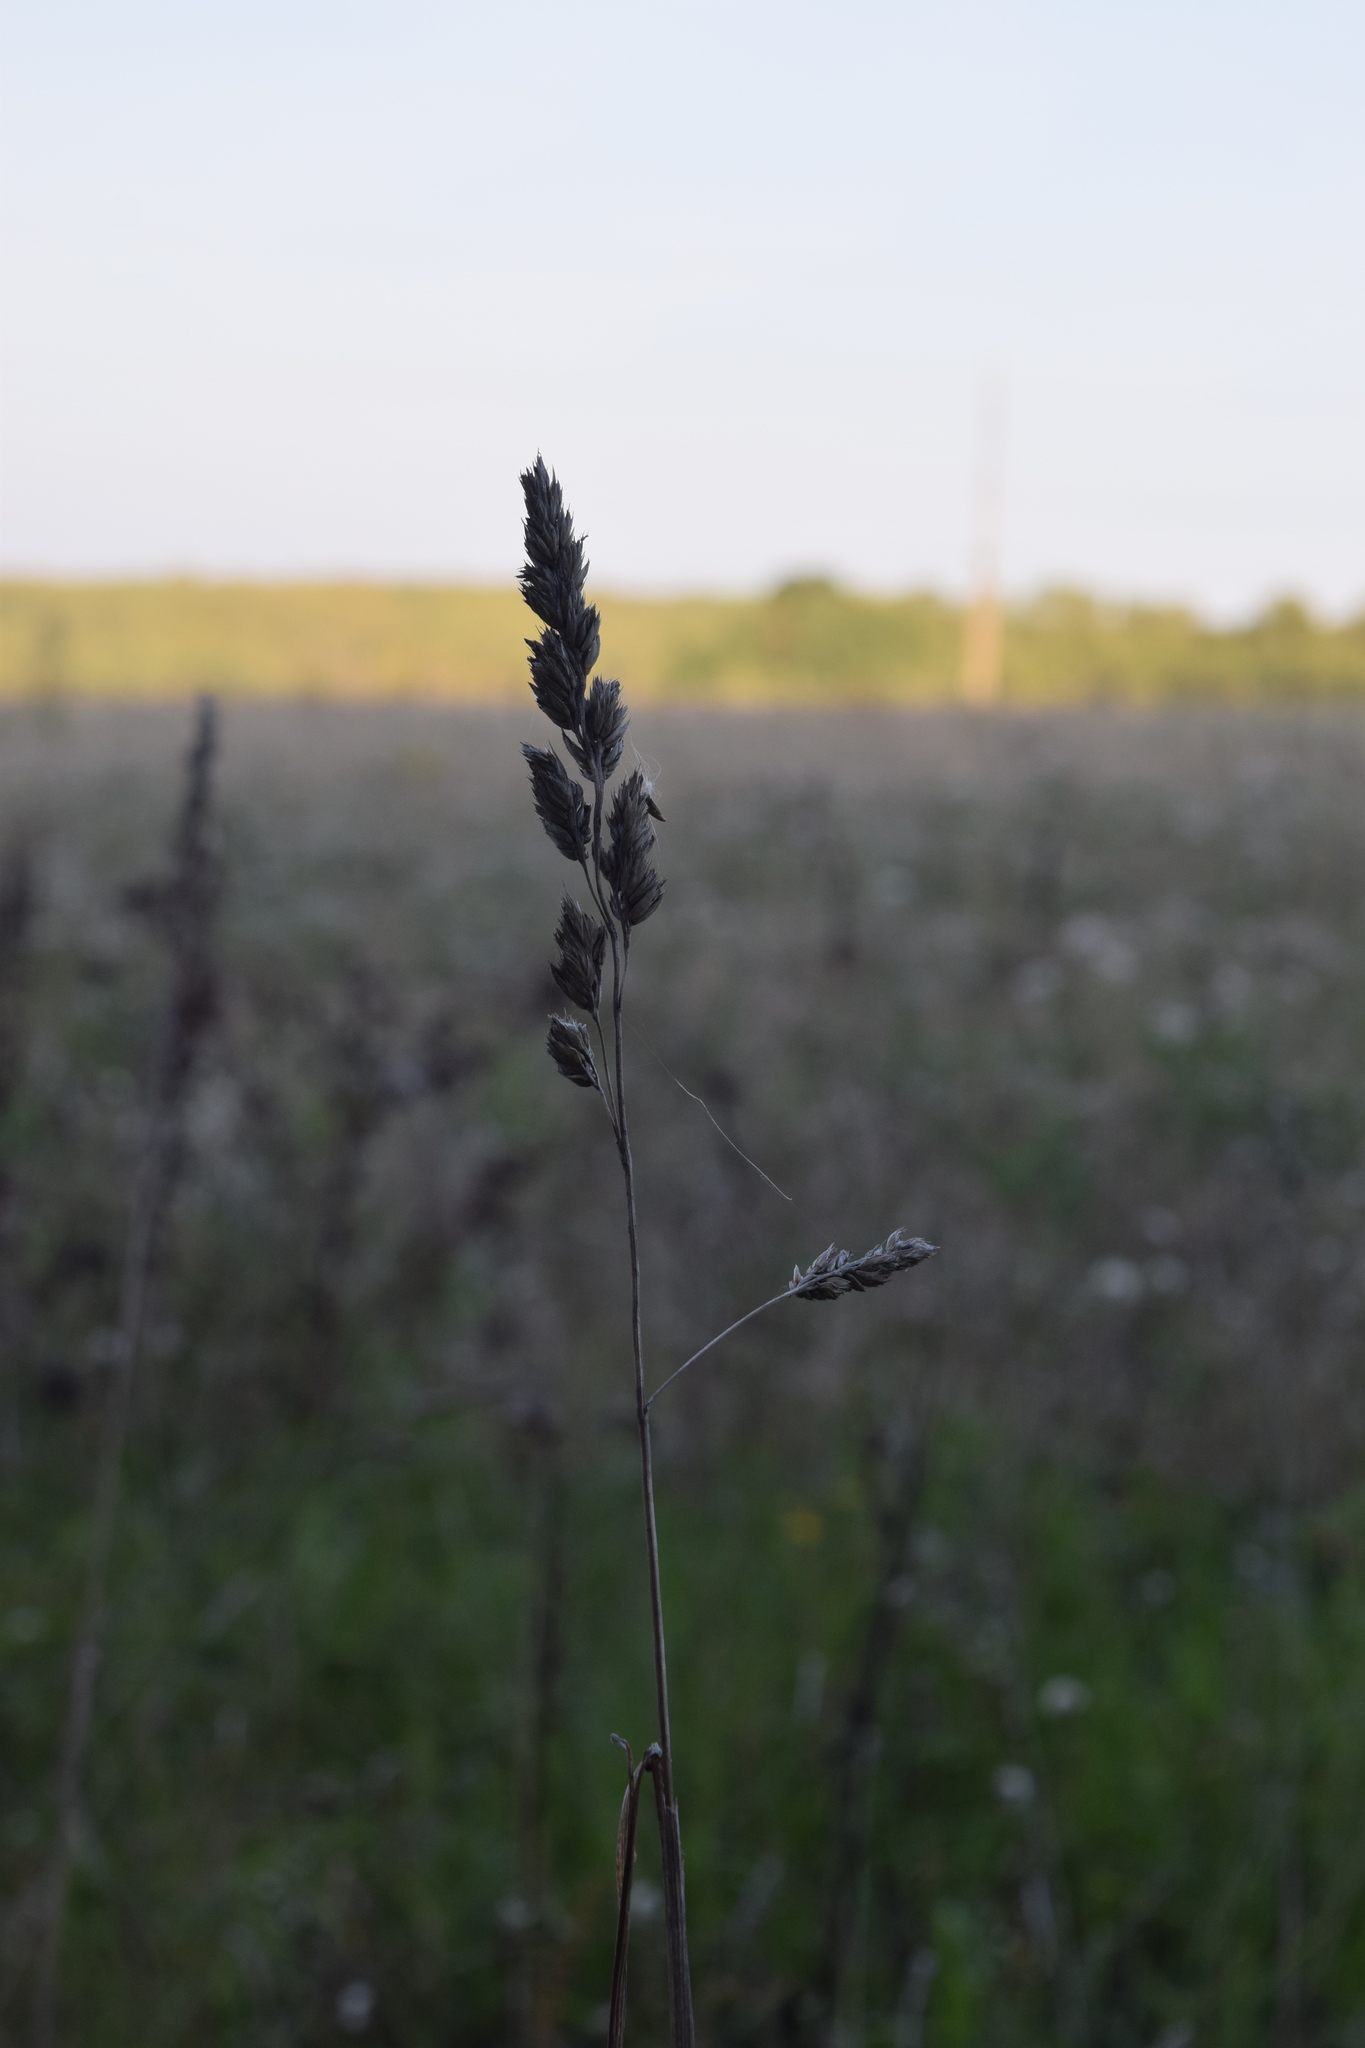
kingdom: Plantae
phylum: Tracheophyta
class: Liliopsida
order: Poales
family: Poaceae
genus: Dactylis
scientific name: Dactylis glomerata
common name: Orchardgrass
